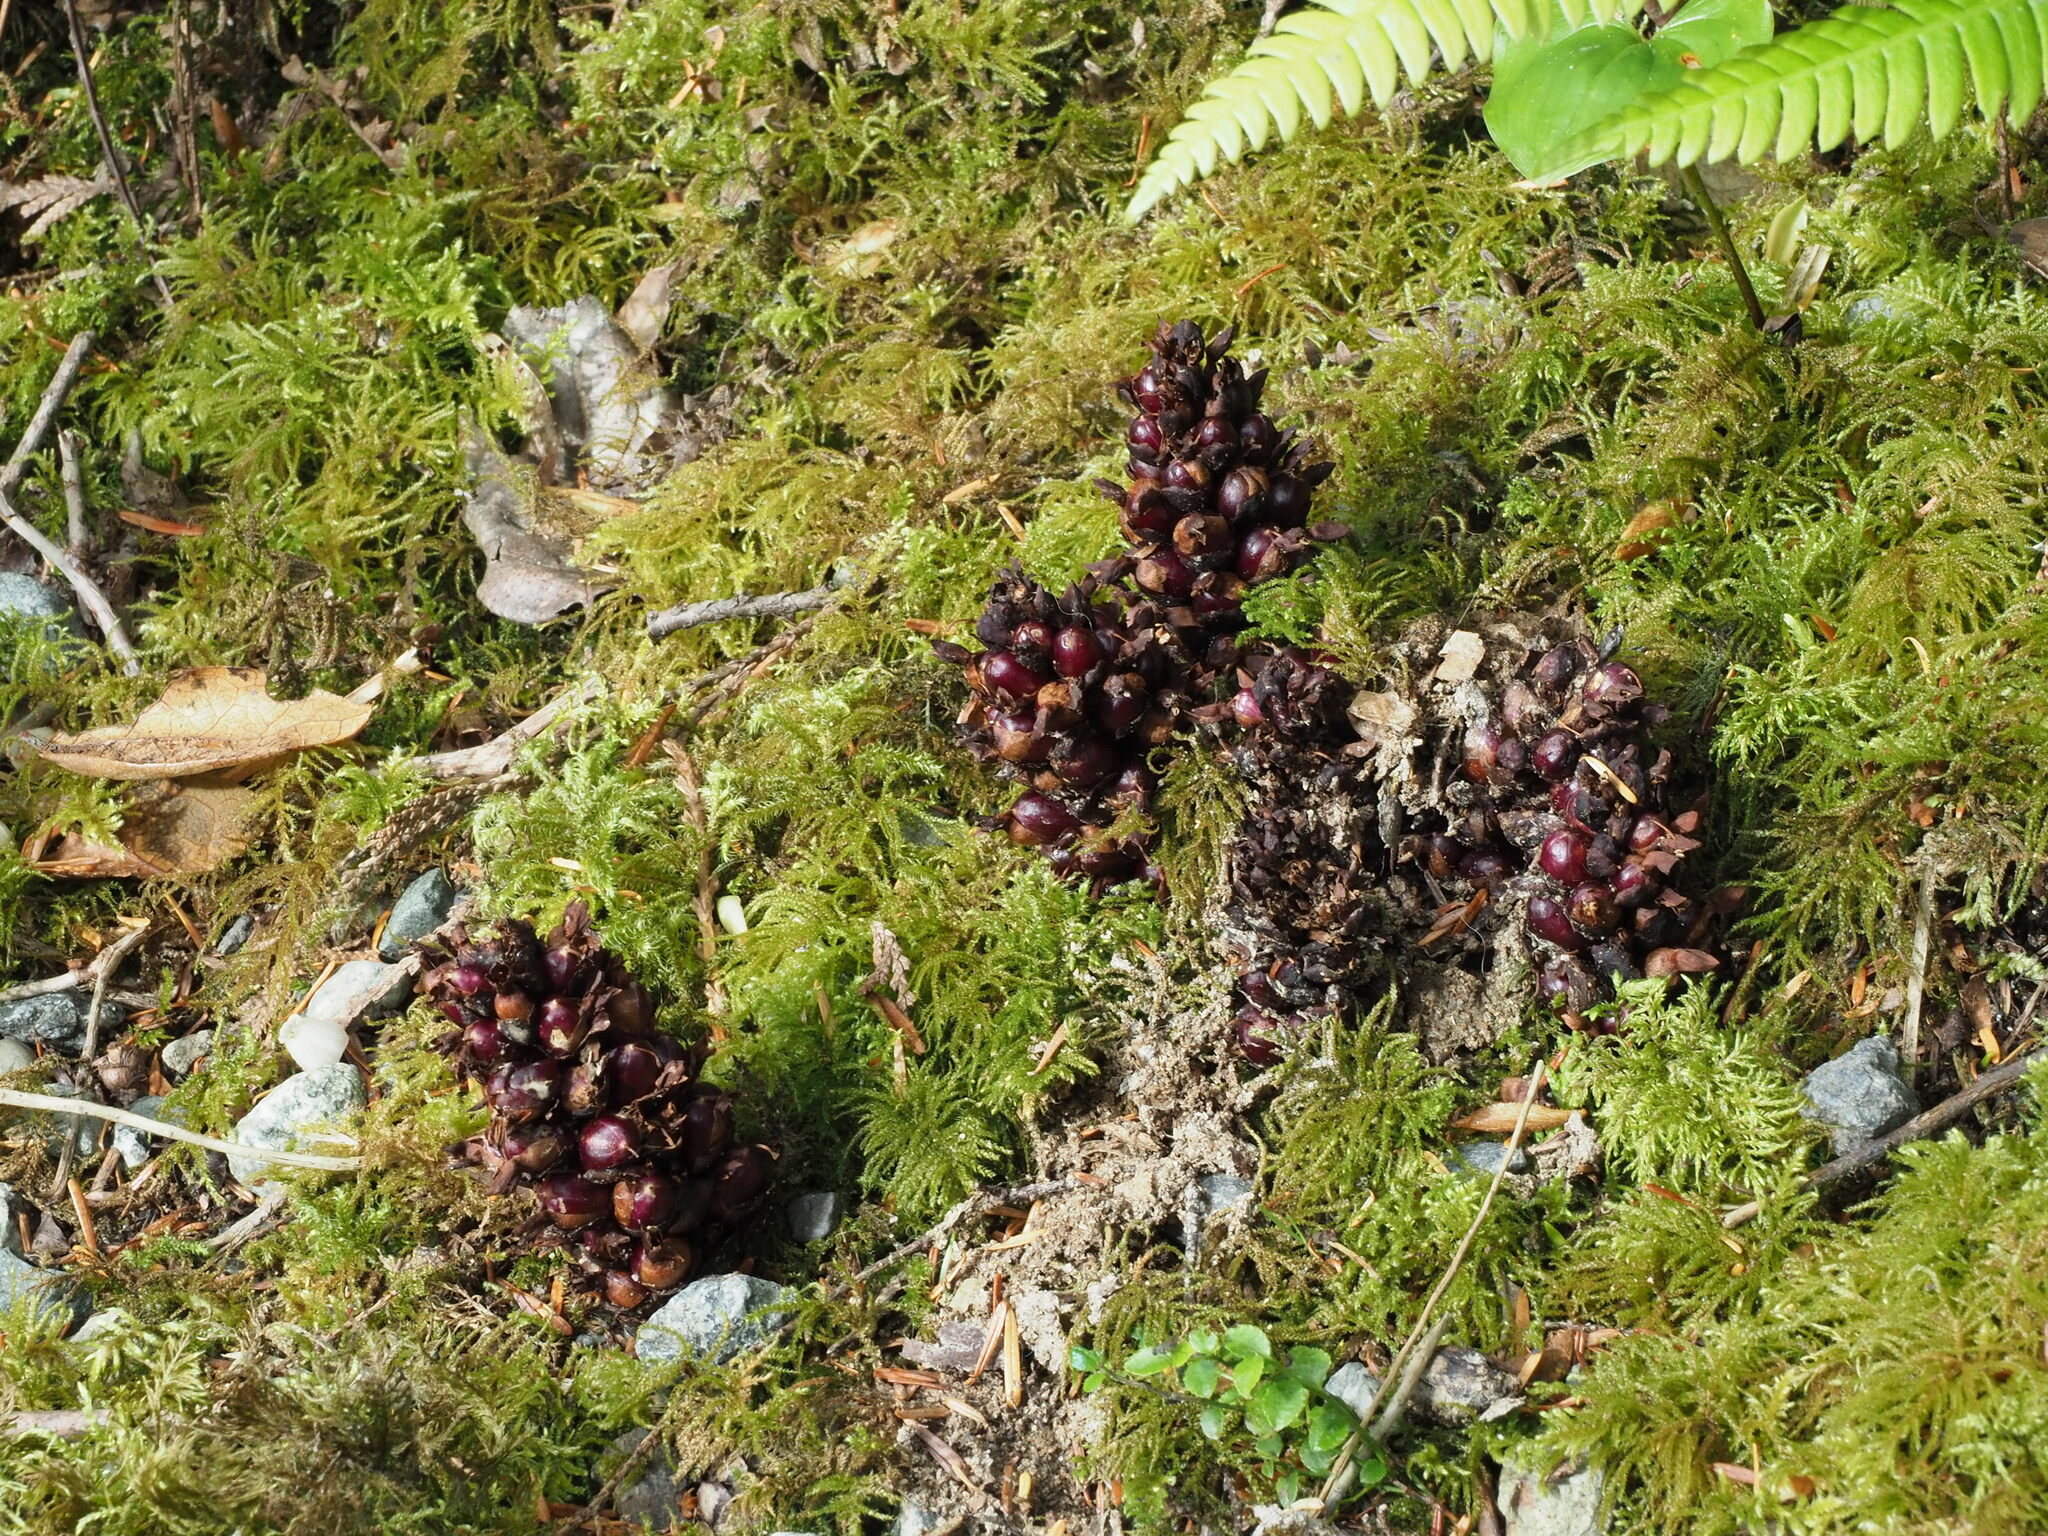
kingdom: Plantae
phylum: Tracheophyta
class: Magnoliopsida
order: Lamiales
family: Orobanchaceae
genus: Kopsiopsis
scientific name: Kopsiopsis hookeri
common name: Hooker's groundcone
